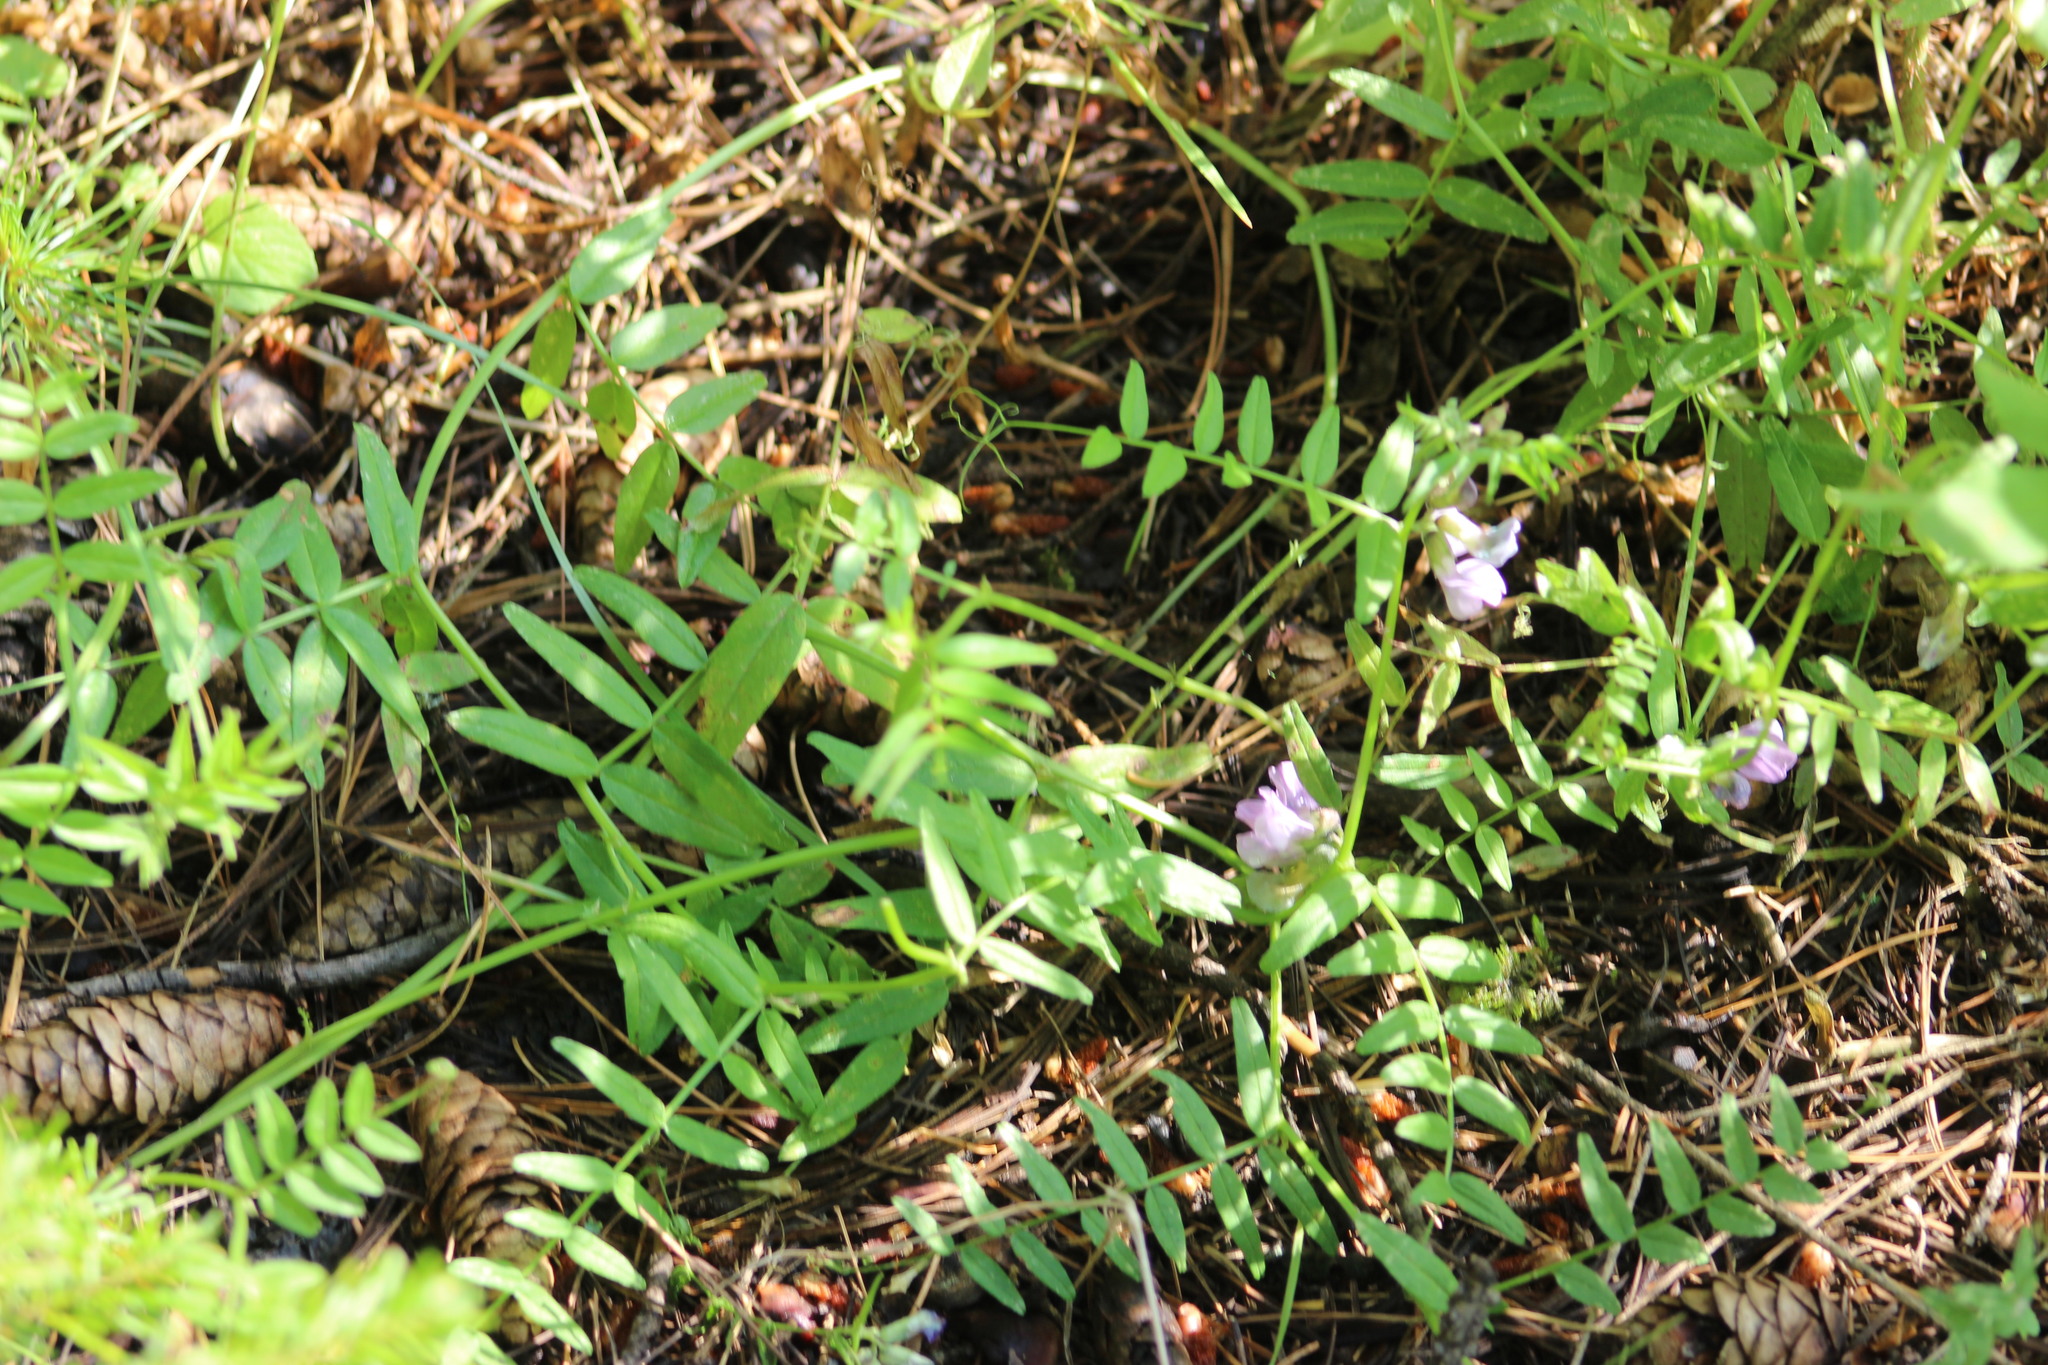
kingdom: Plantae
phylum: Tracheophyta
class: Magnoliopsida
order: Fabales
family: Fabaceae
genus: Vicia
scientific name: Vicia sepium
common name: Bush vetch
